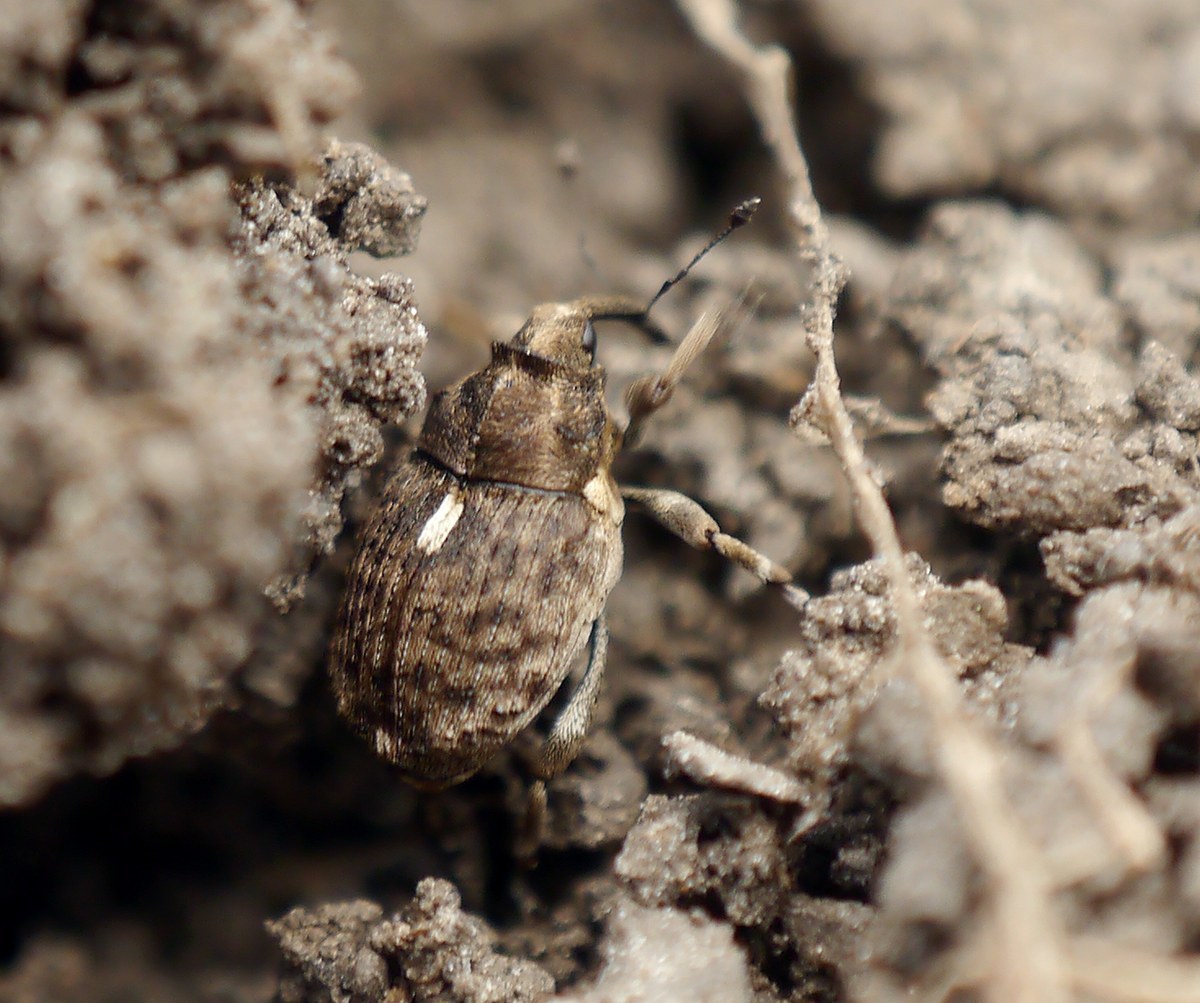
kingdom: Animalia
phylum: Arthropoda
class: Insecta
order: Coleoptera
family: Curculionidae
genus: Ethelcus
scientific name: Ethelcus denticulatus
